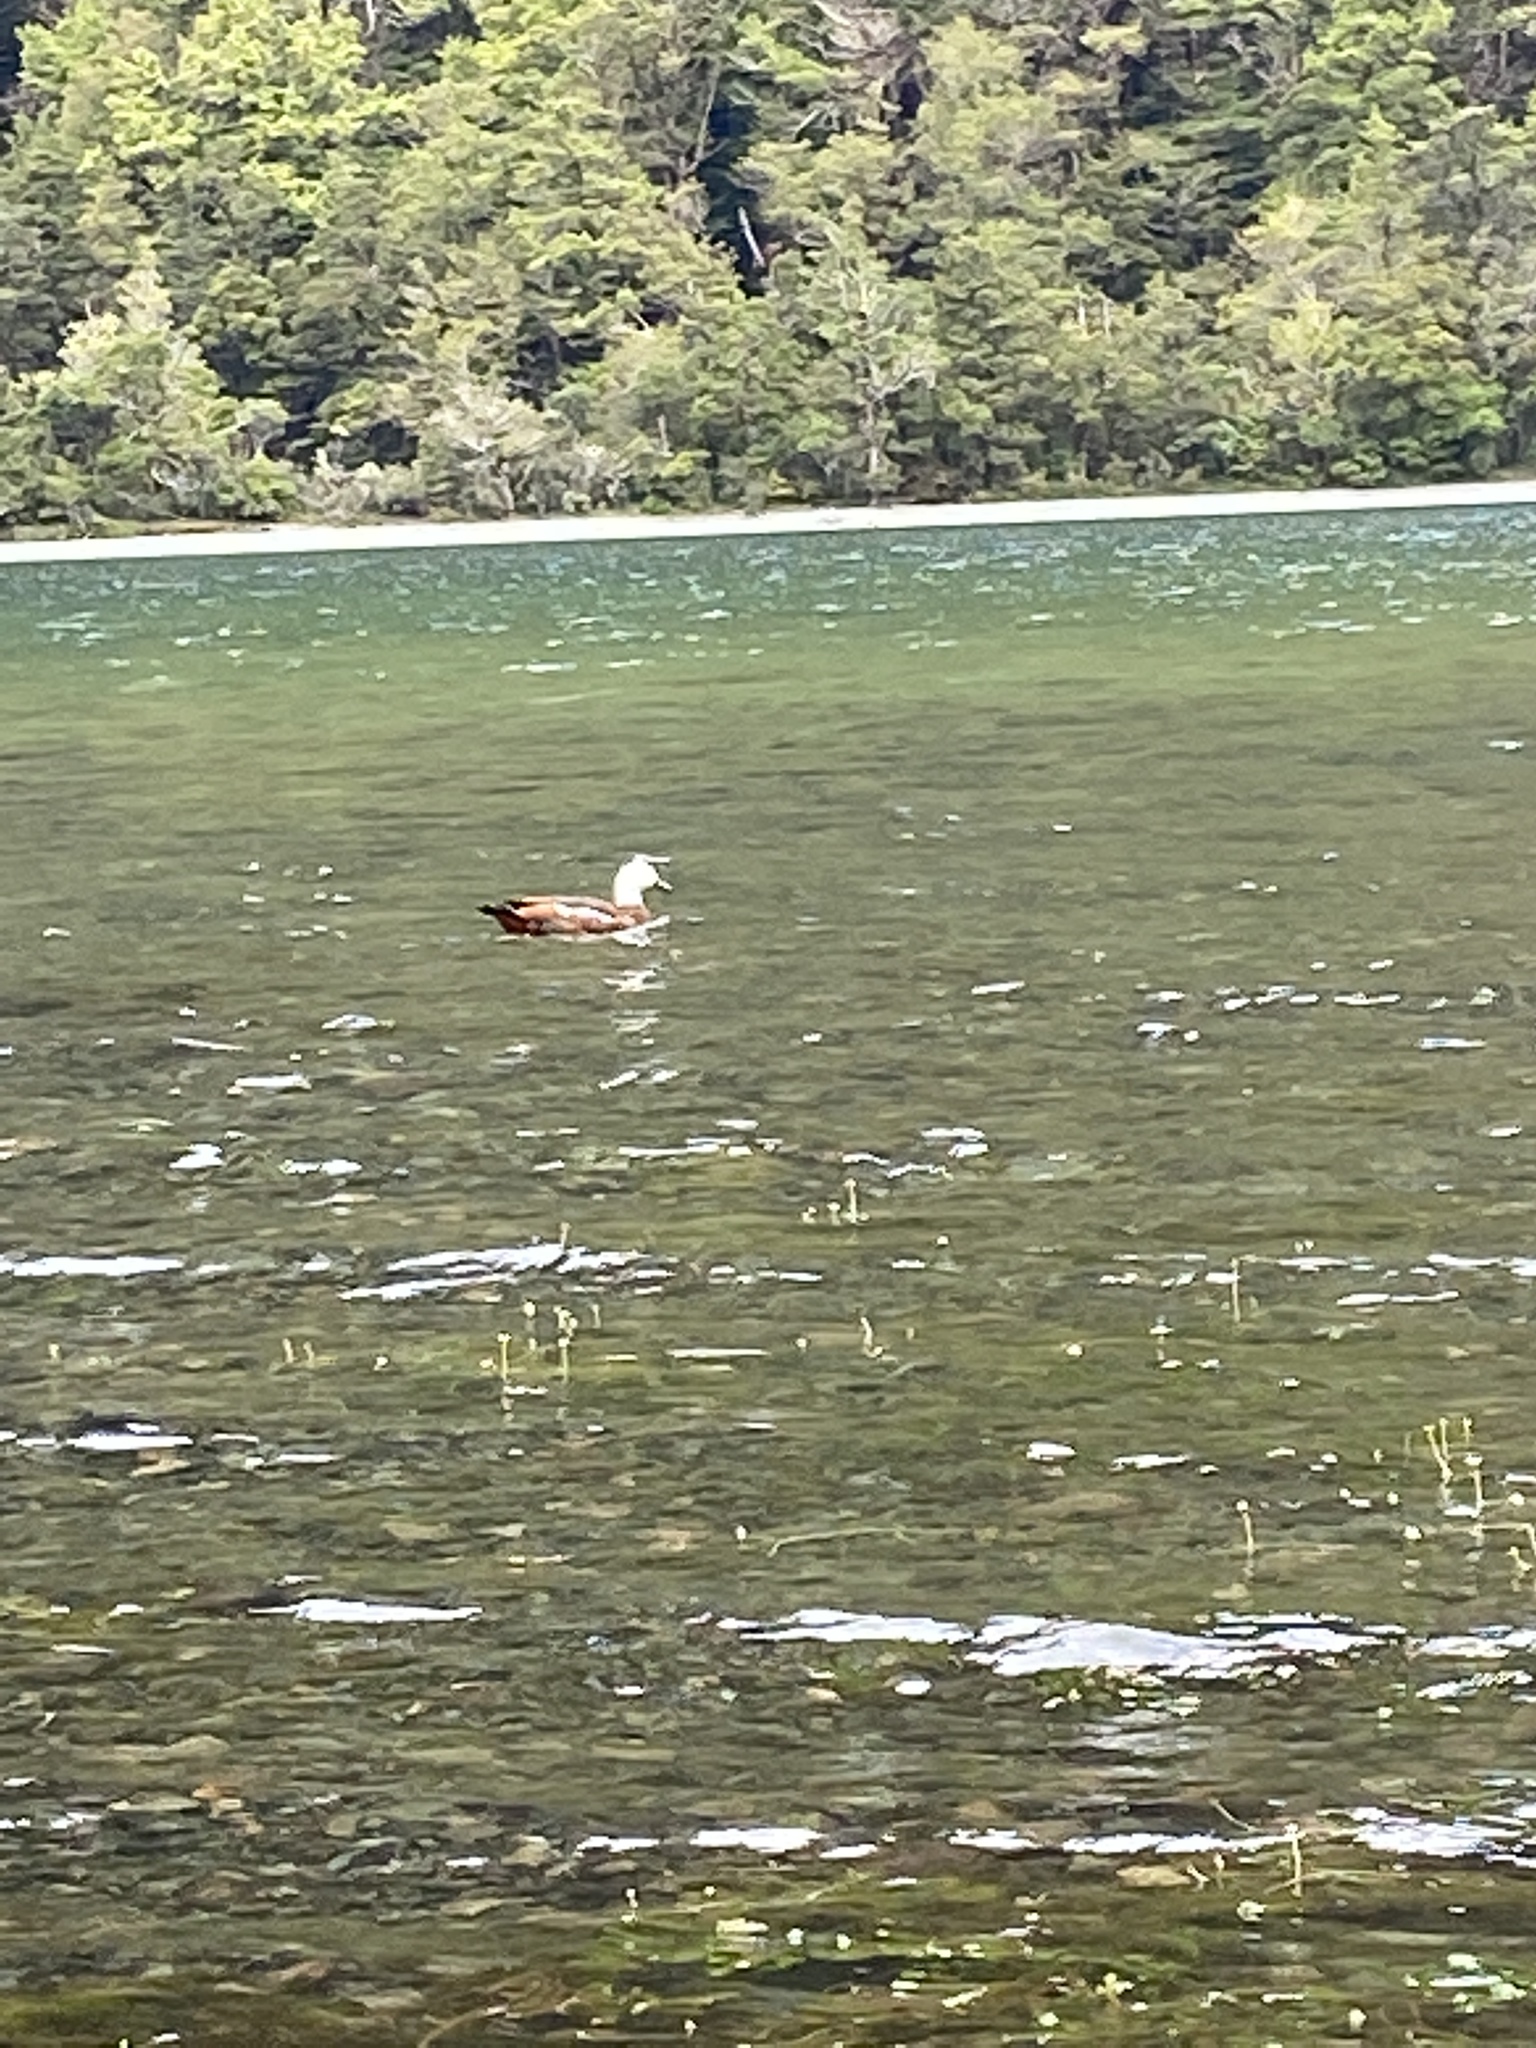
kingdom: Animalia
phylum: Chordata
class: Aves
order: Anseriformes
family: Anatidae
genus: Tadorna
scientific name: Tadorna variegata
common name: Paradise shelduck
